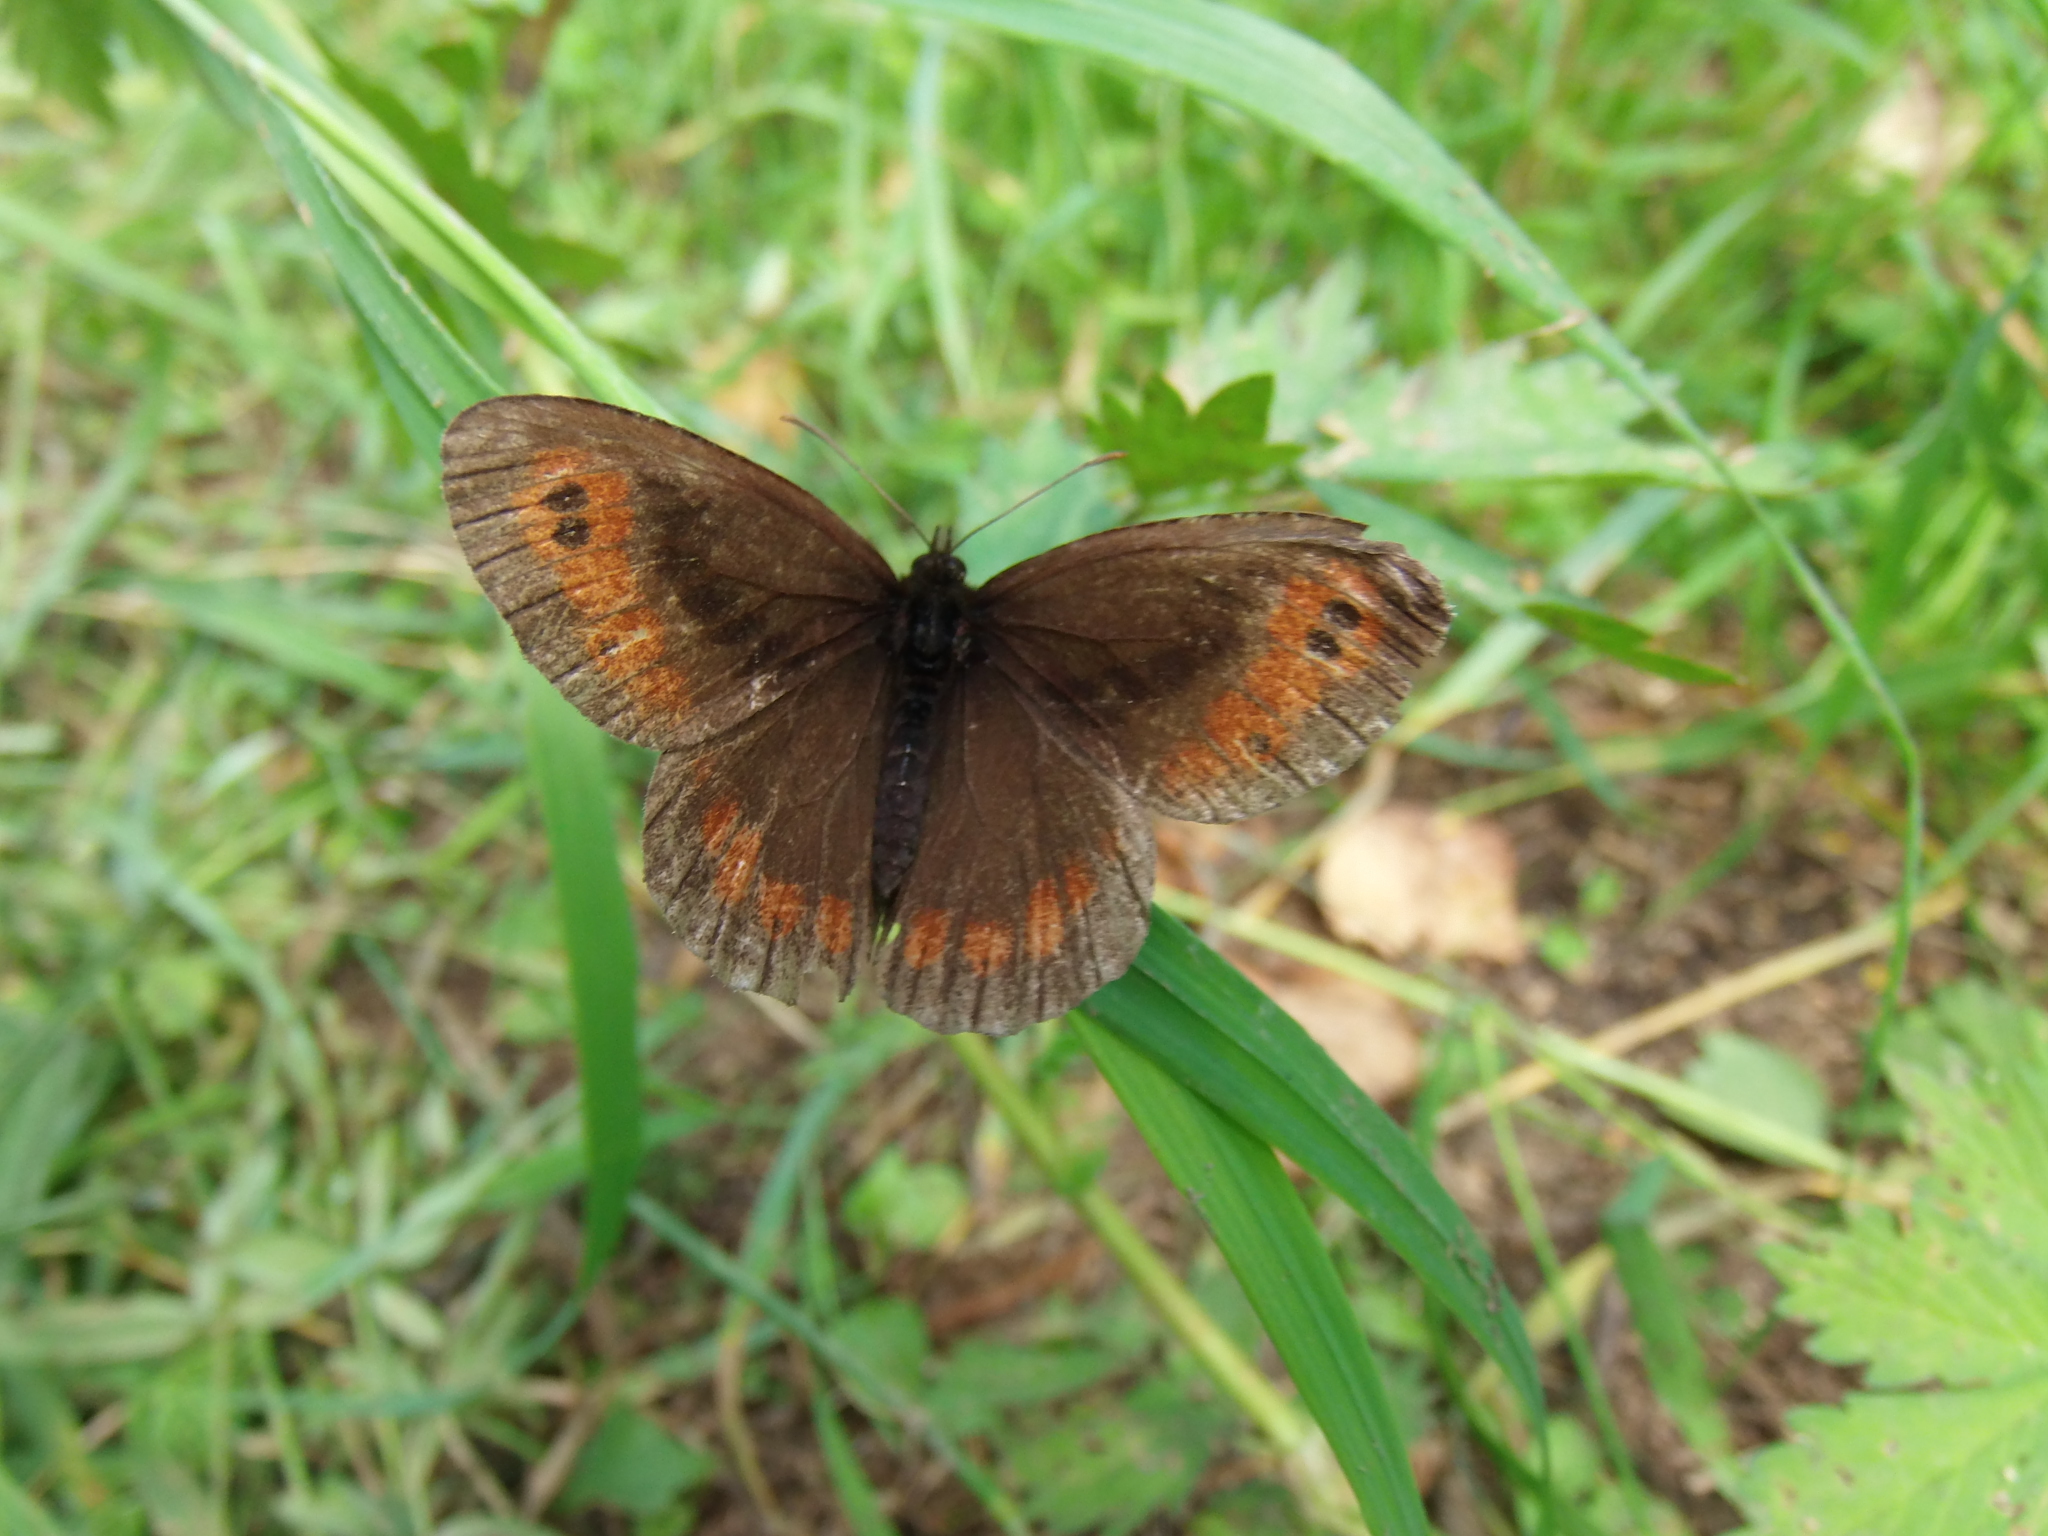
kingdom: Animalia
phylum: Arthropoda
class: Insecta
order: Lepidoptera
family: Nymphalidae
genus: Erebia
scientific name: Erebia ligea
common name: Arran brown
